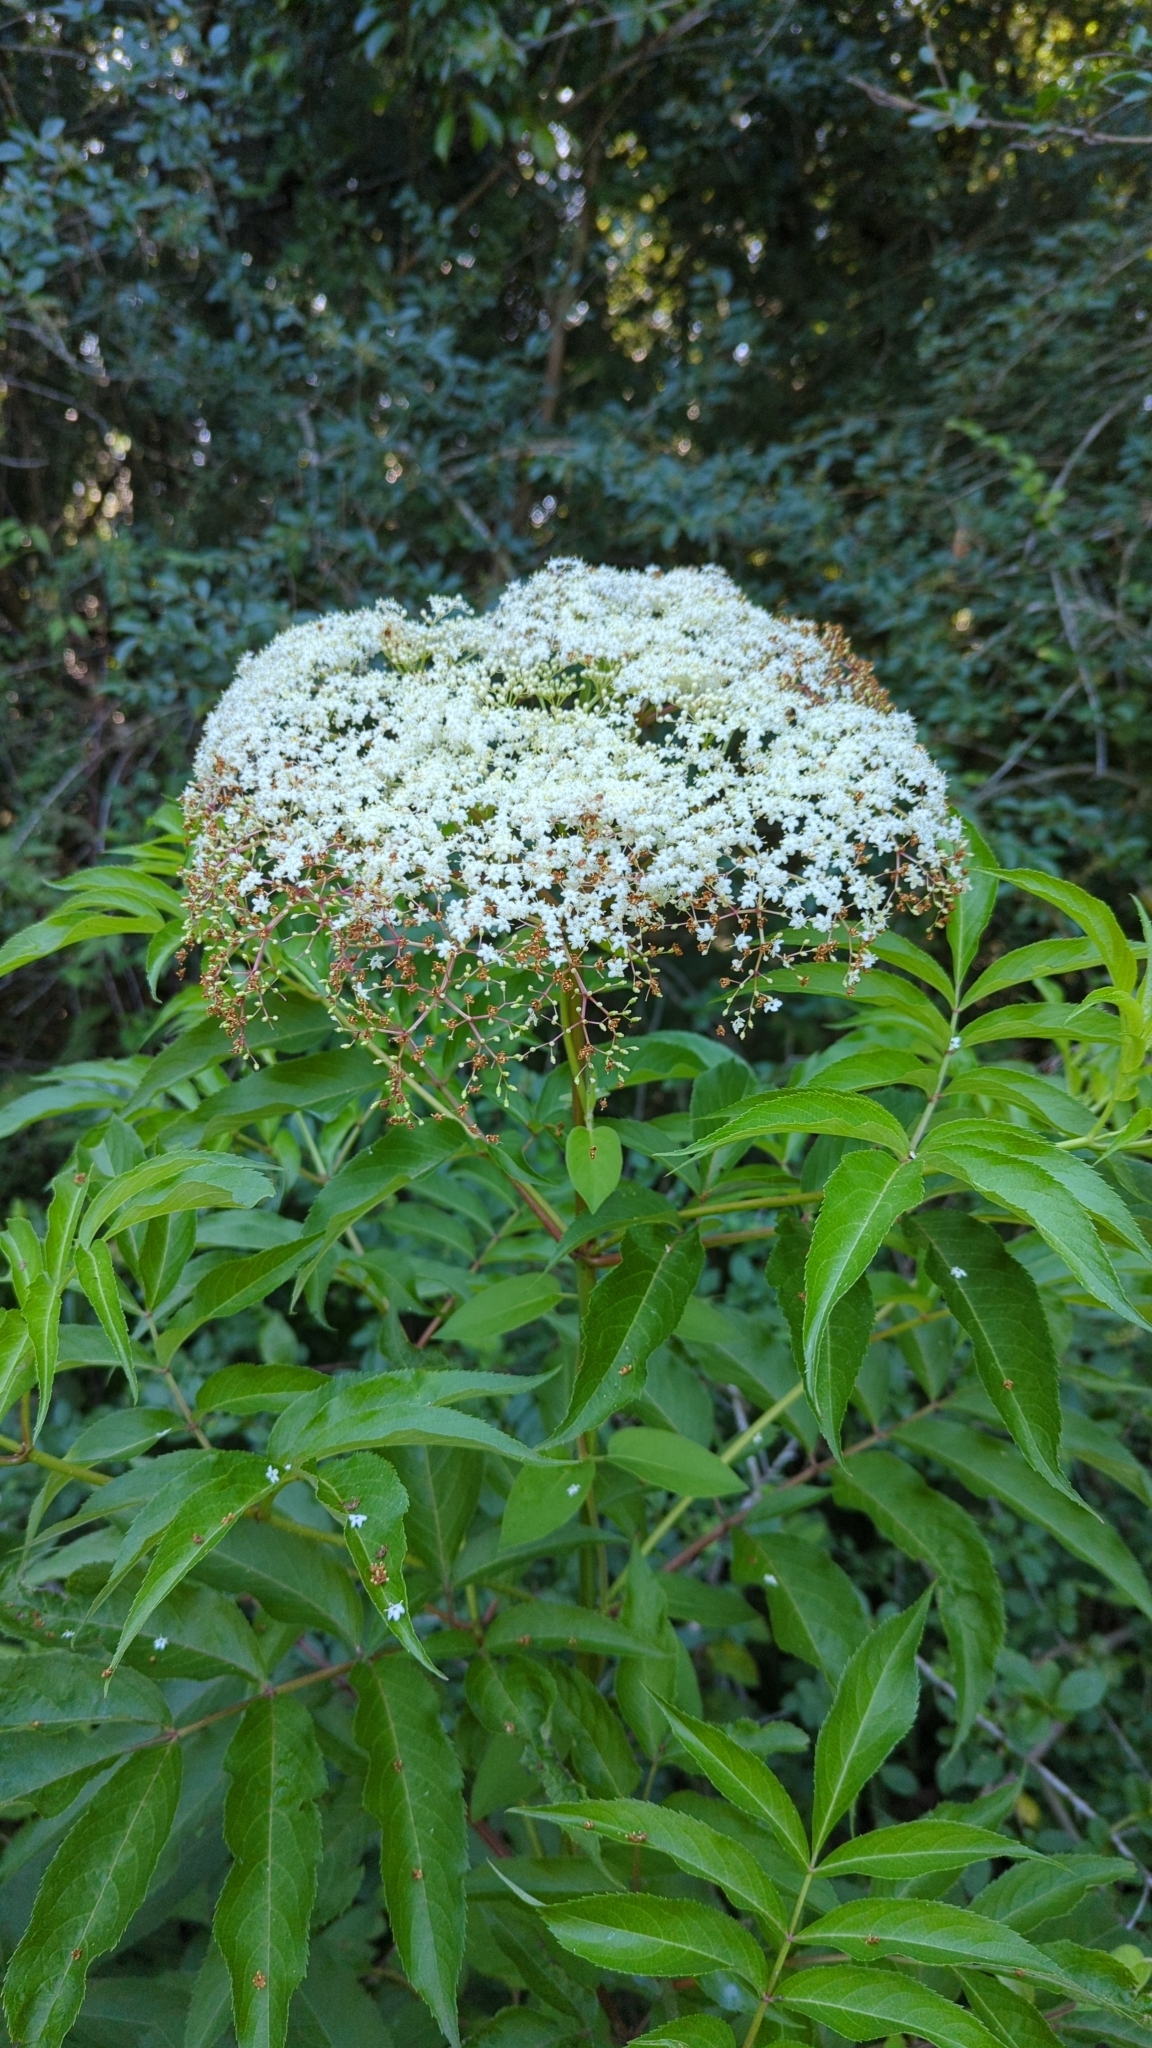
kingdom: Plantae
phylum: Tracheophyta
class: Magnoliopsida
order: Dipsacales
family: Viburnaceae
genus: Sambucus
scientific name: Sambucus canadensis
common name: American elder
